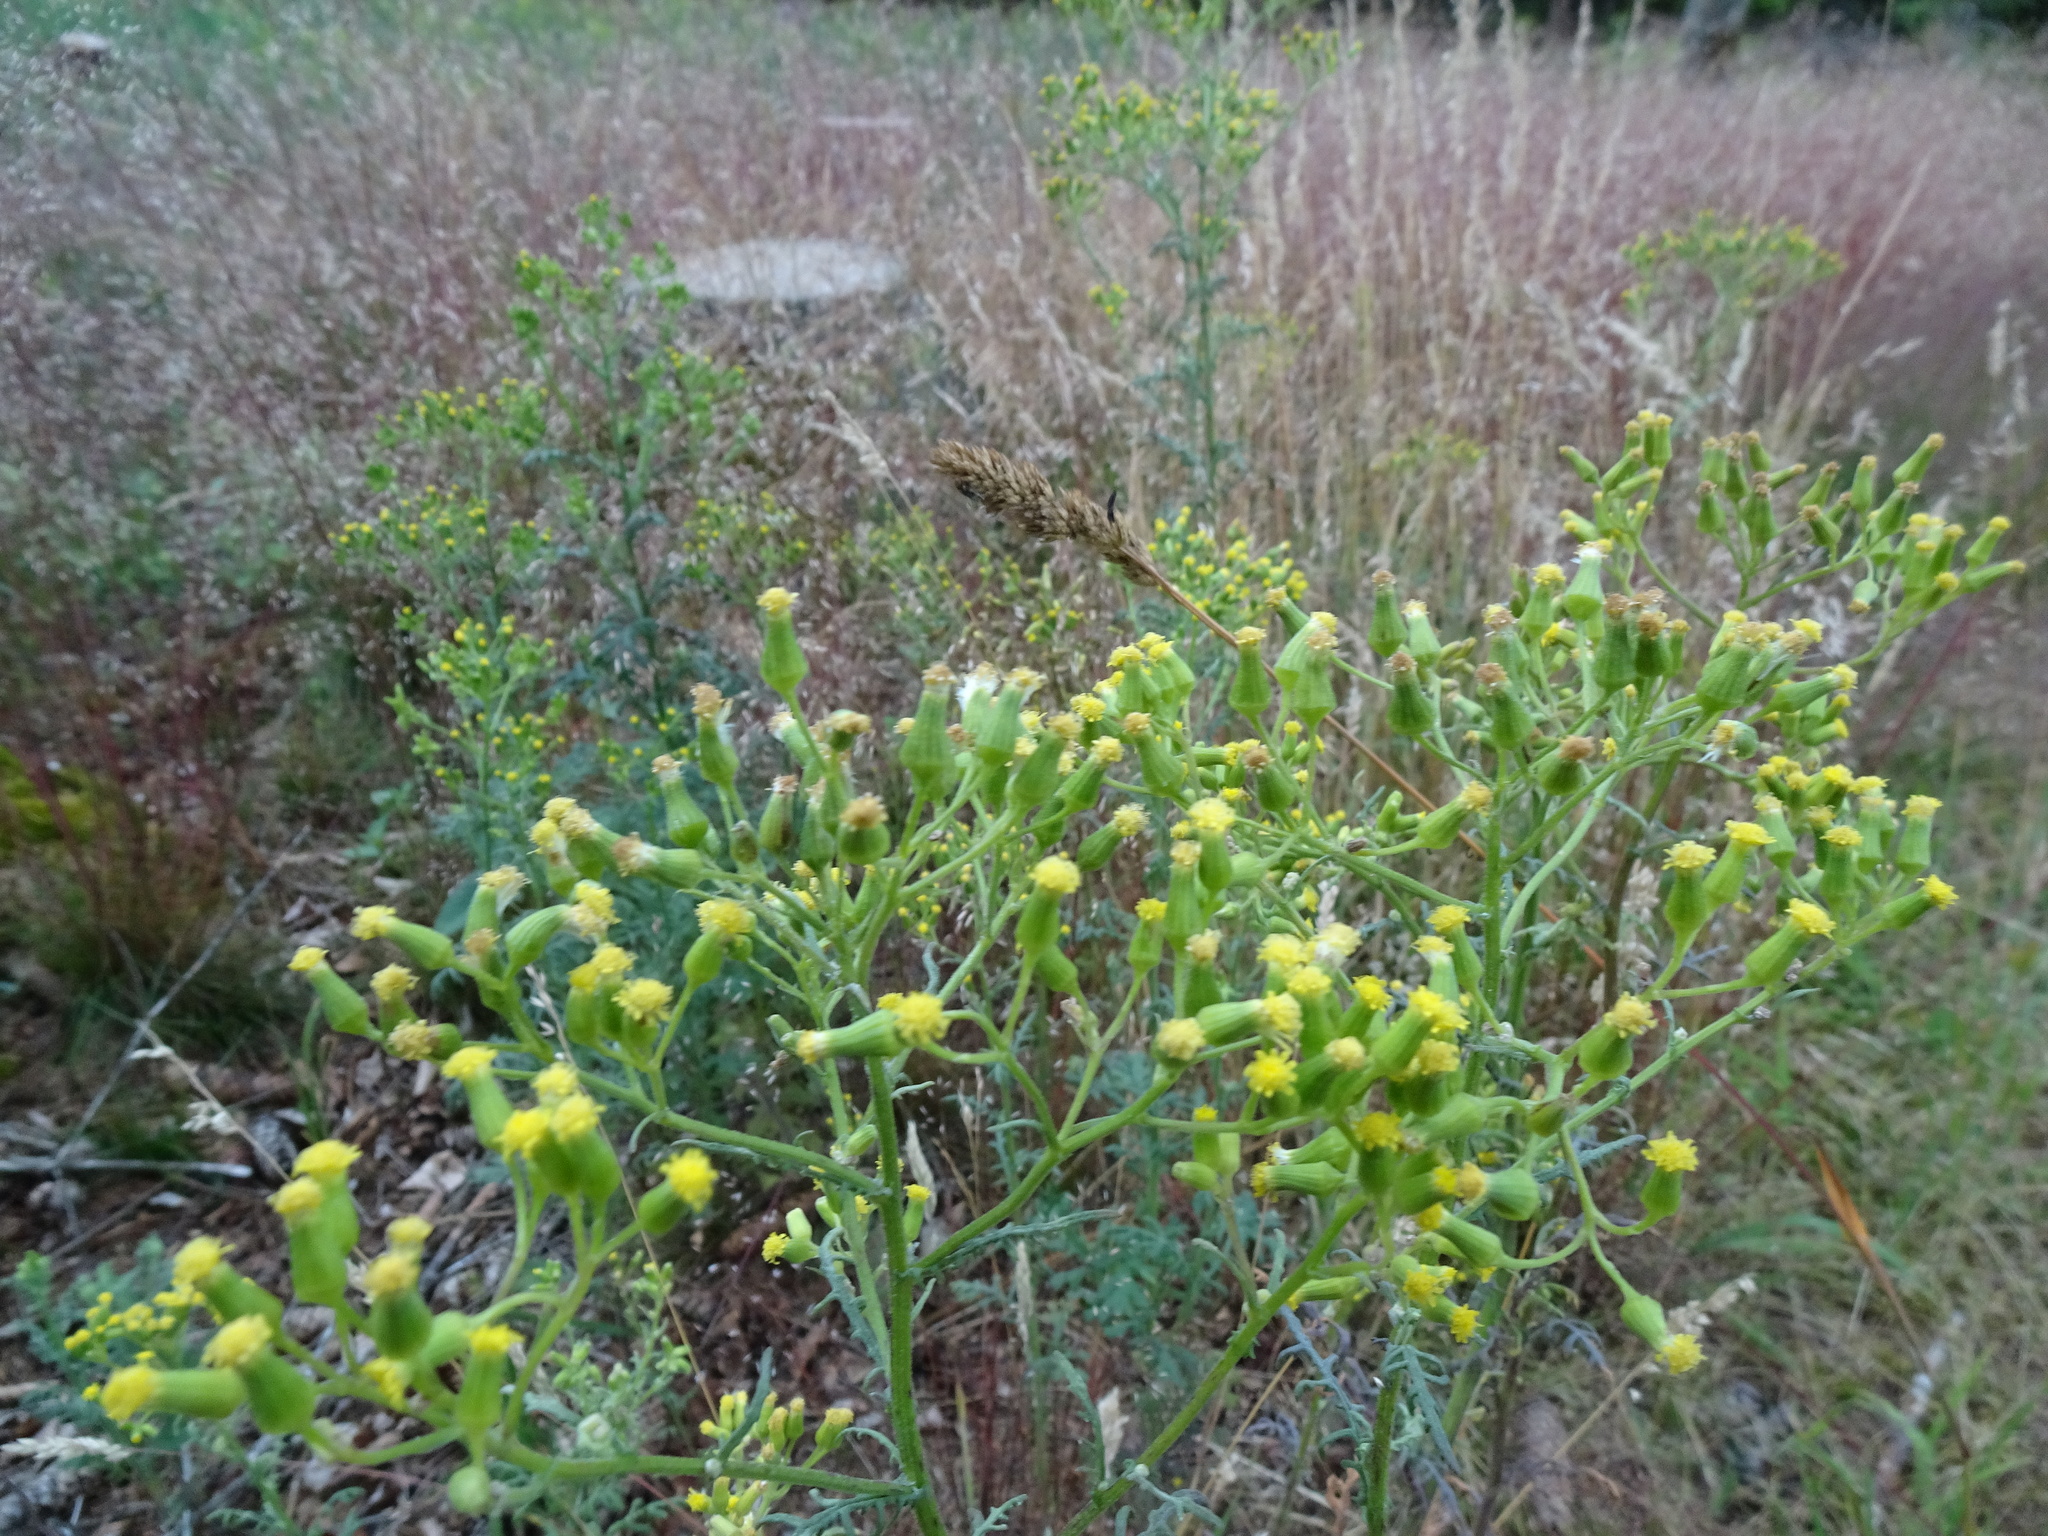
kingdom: Plantae
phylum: Tracheophyta
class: Magnoliopsida
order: Asterales
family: Asteraceae
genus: Senecio
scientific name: Senecio sylvaticus
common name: Woodland ragwort
